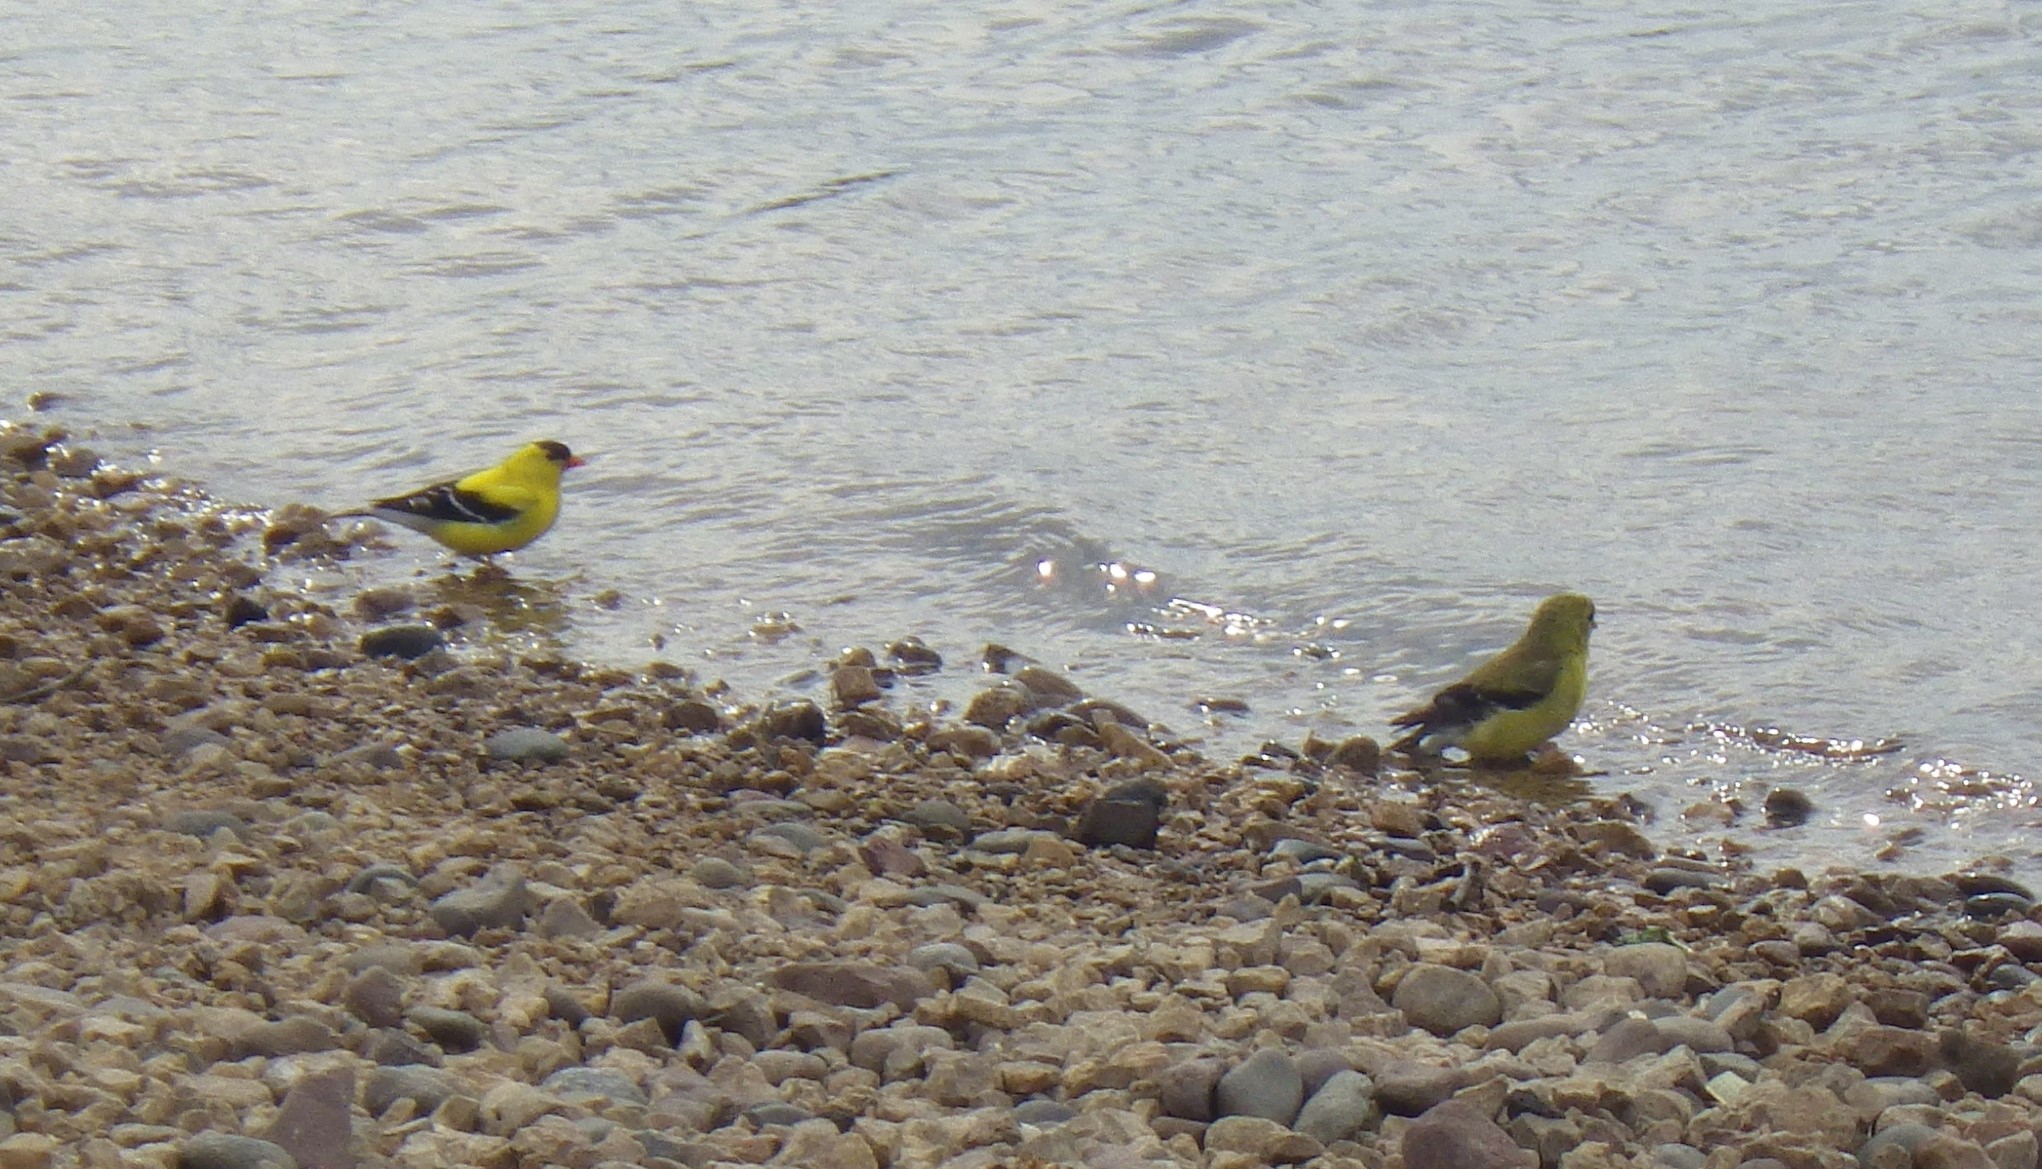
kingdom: Animalia
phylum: Chordata
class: Aves
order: Passeriformes
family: Fringillidae
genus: Spinus
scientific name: Spinus tristis
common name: American goldfinch
